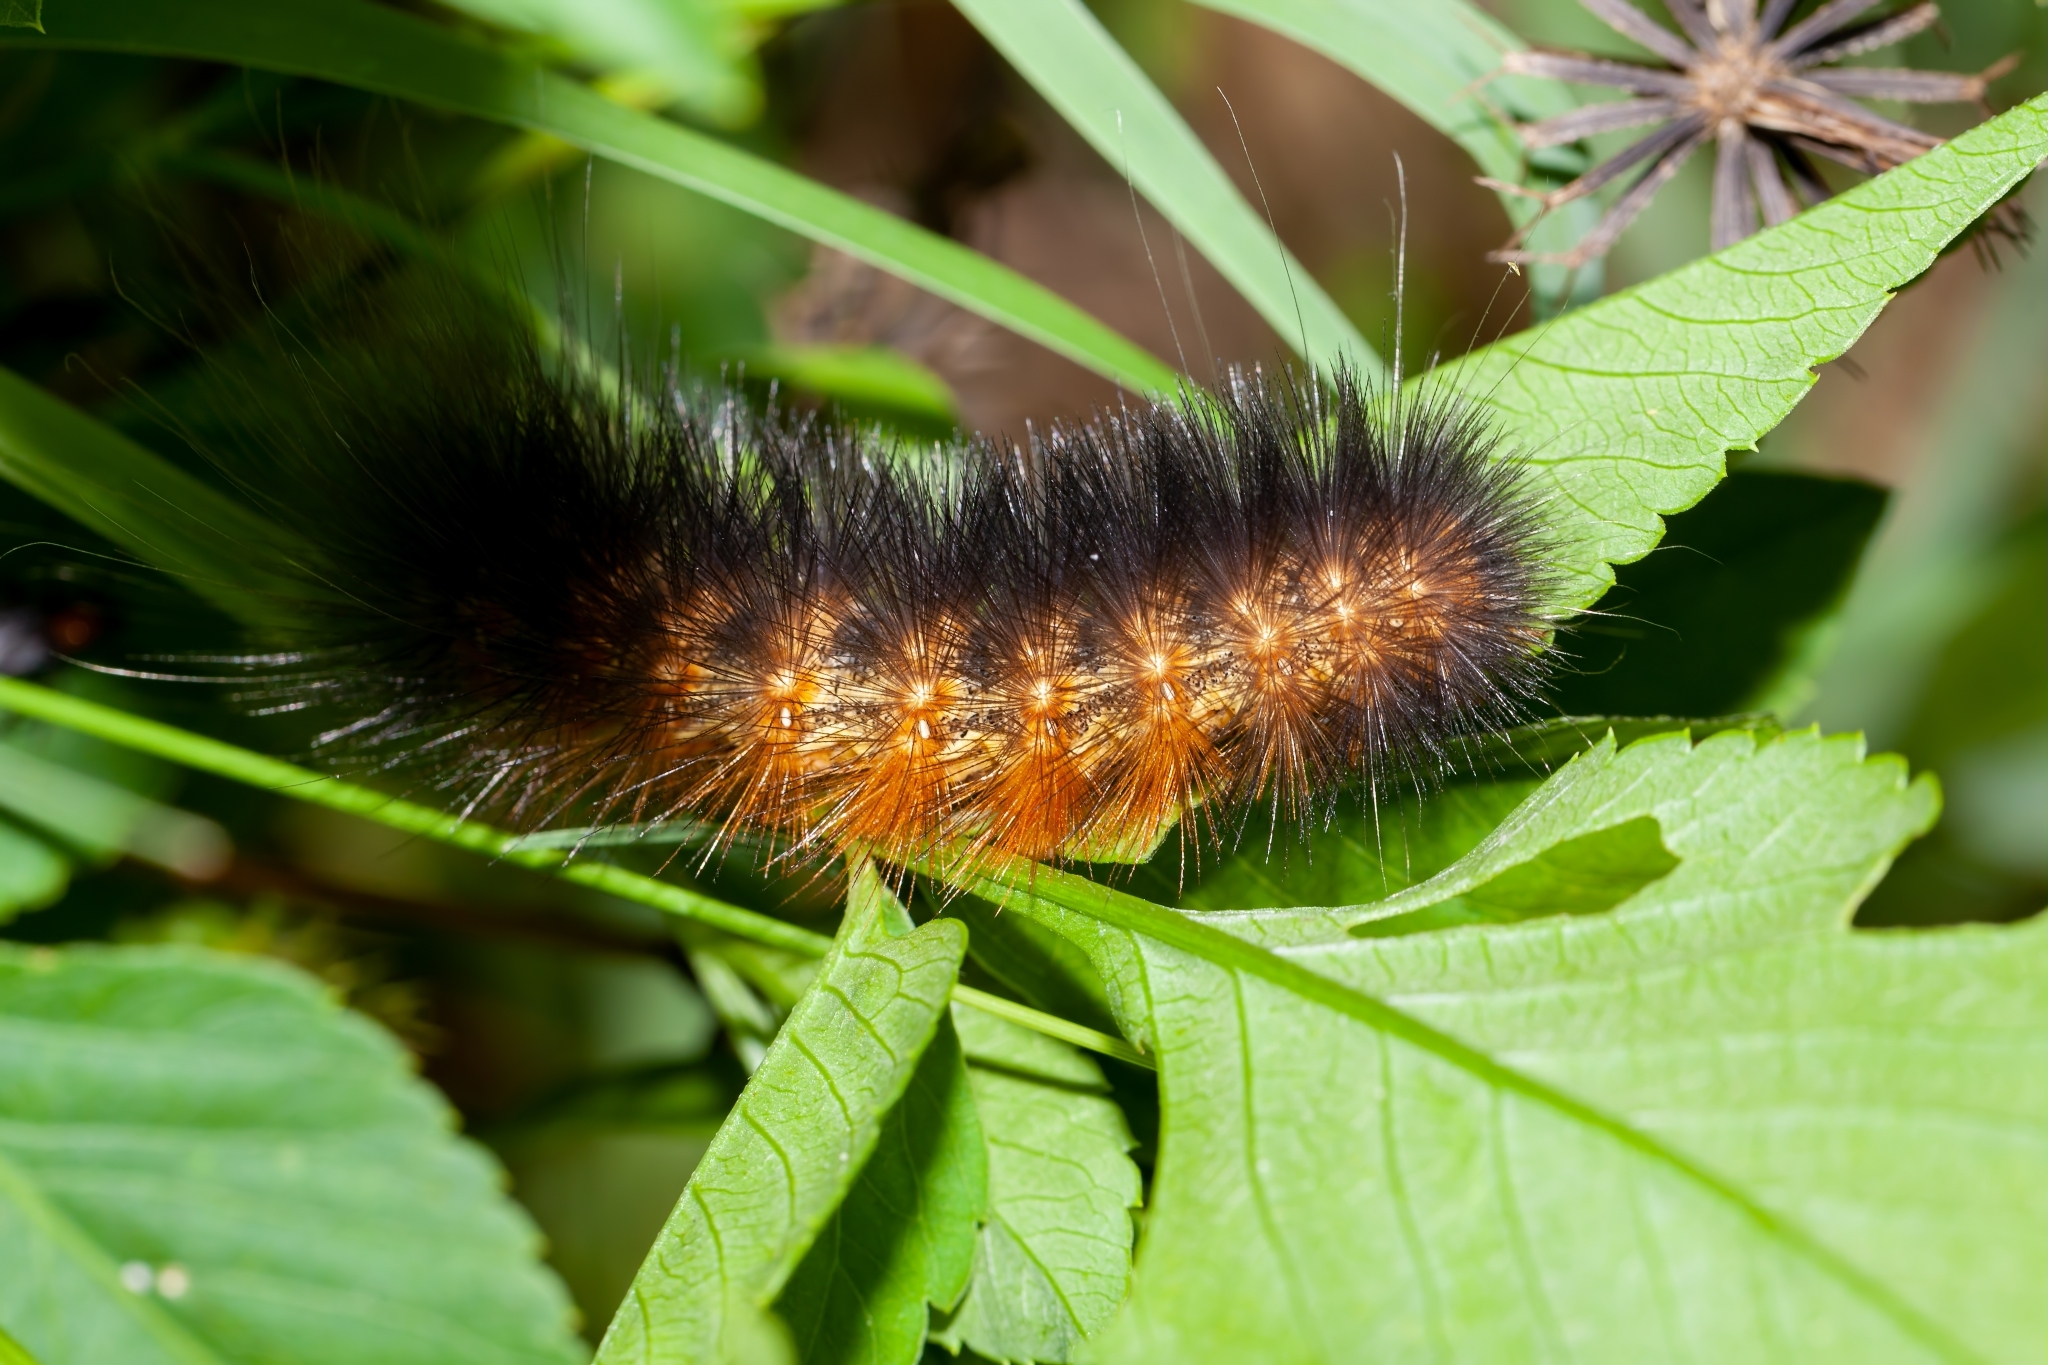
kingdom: Animalia
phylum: Arthropoda
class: Insecta
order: Lepidoptera
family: Erebidae
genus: Estigmene
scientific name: Estigmene acrea
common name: Salt marsh moth
